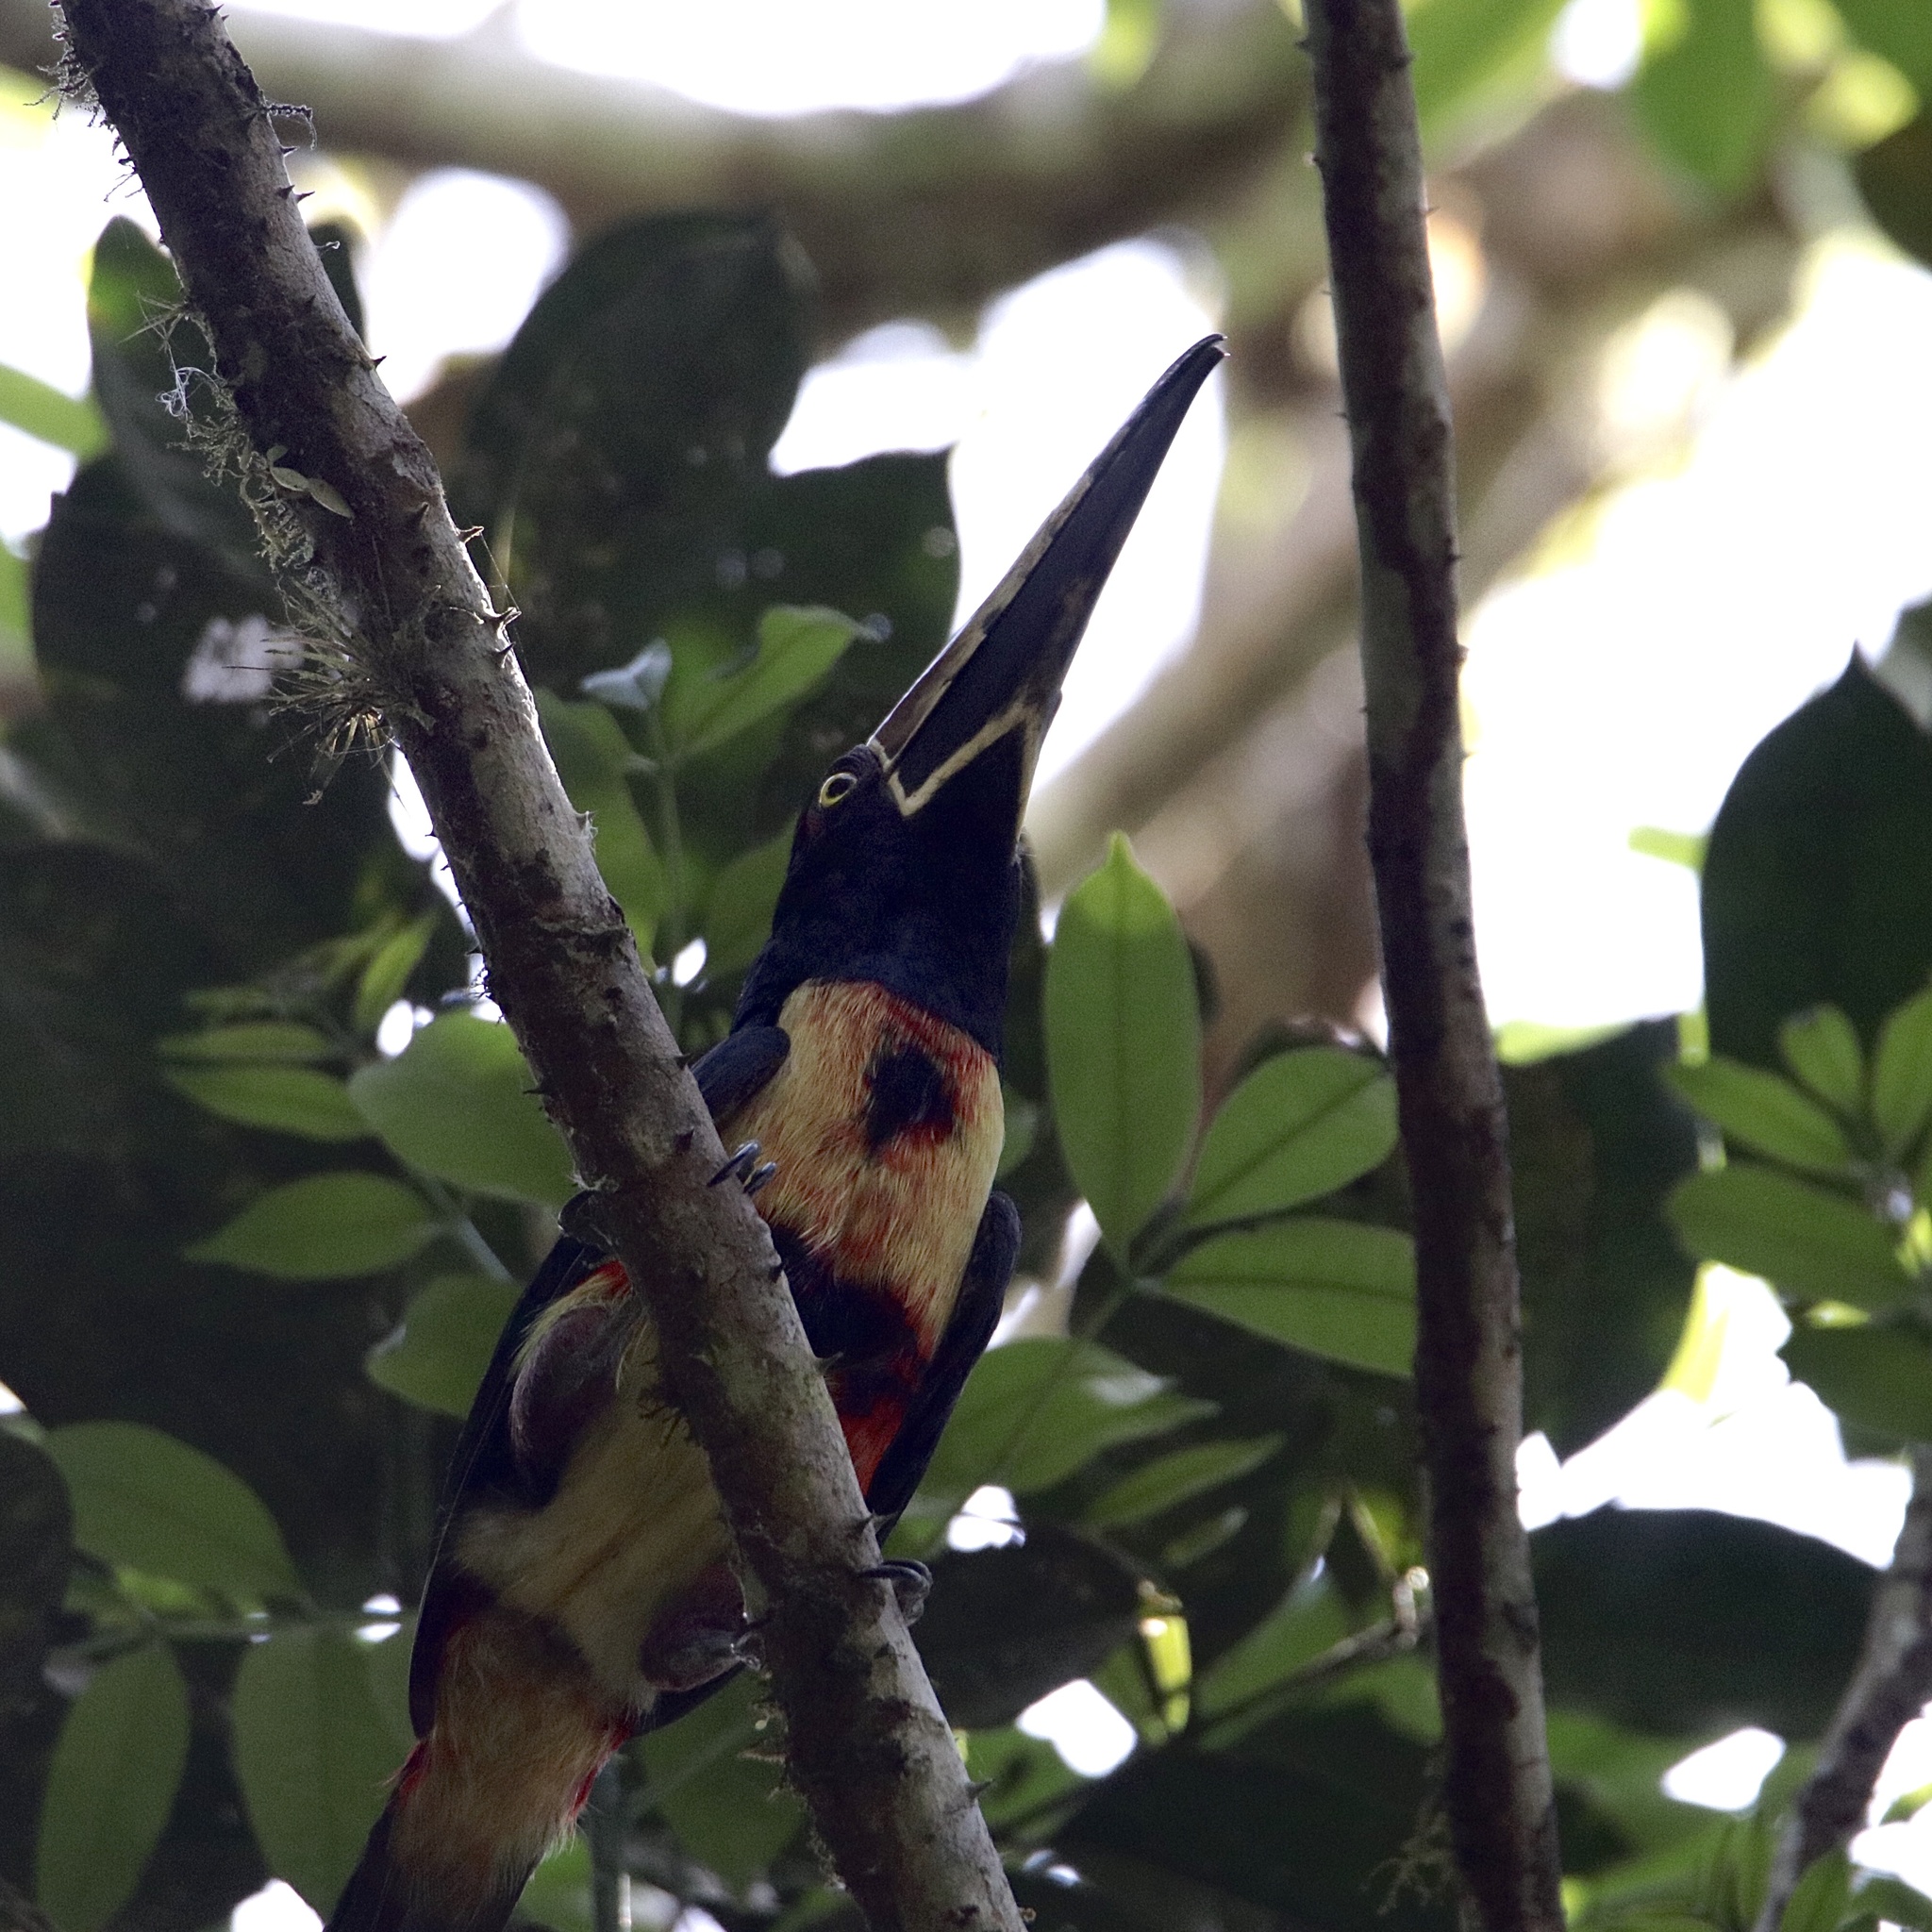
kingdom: Animalia
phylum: Chordata
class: Aves
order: Piciformes
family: Ramphastidae
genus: Pteroglossus
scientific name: Pteroglossus torquatus
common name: Collared aracari
